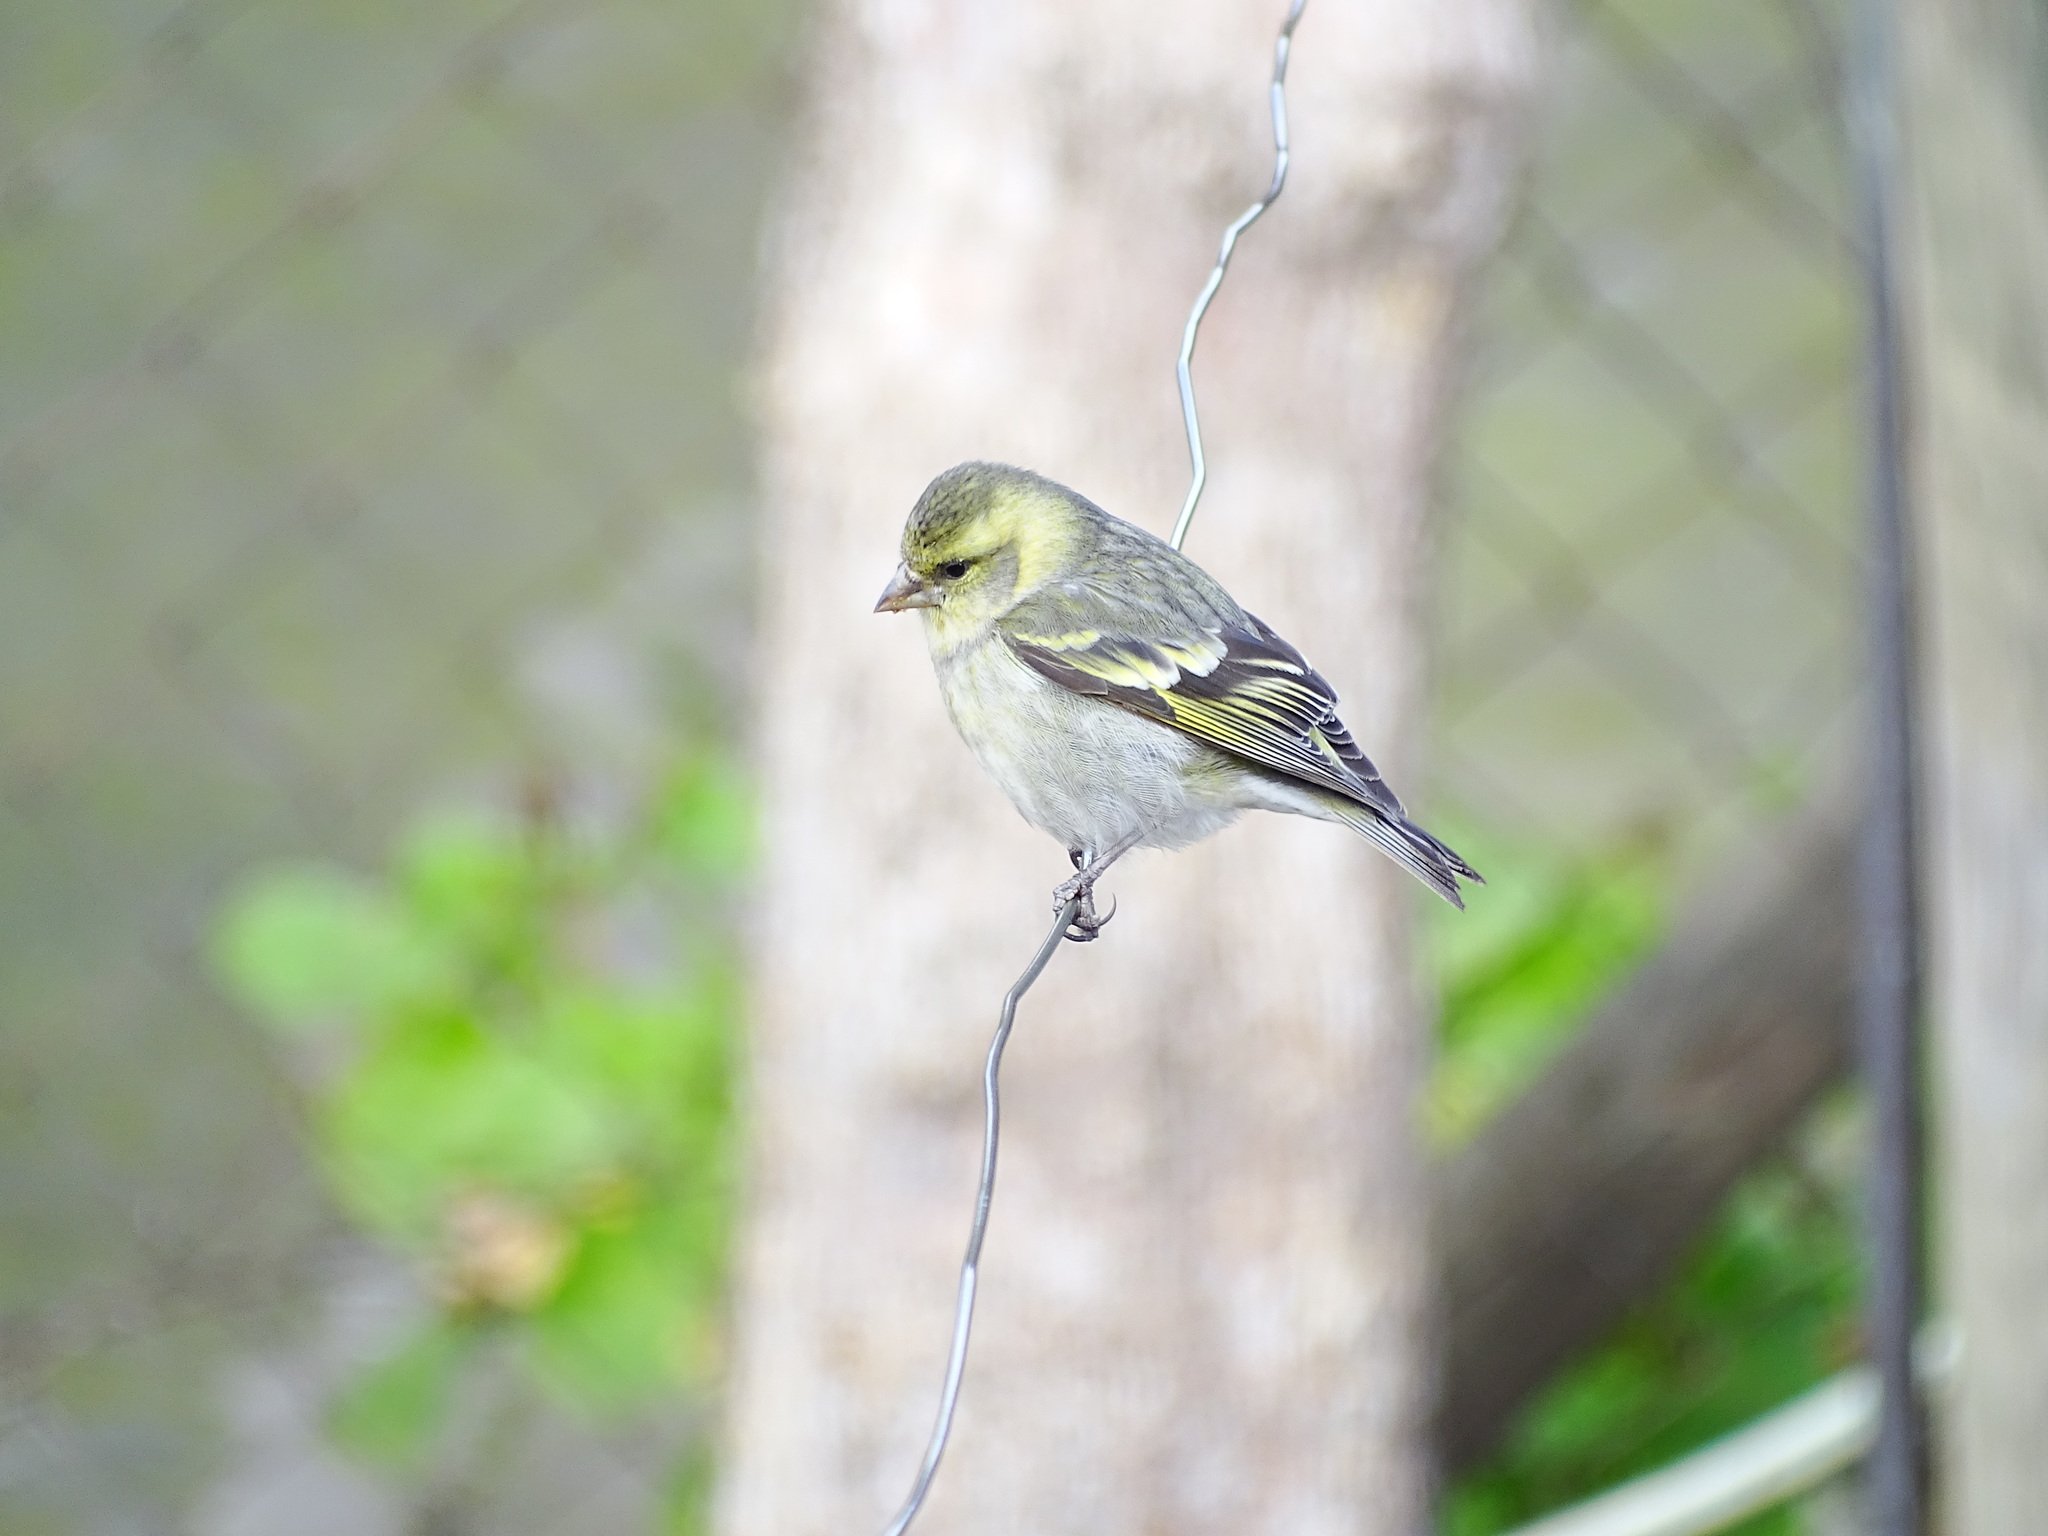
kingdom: Animalia
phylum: Chordata
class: Aves
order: Passeriformes
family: Fringillidae
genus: Spinus
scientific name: Spinus barbatus
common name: Black-chinned siskin
